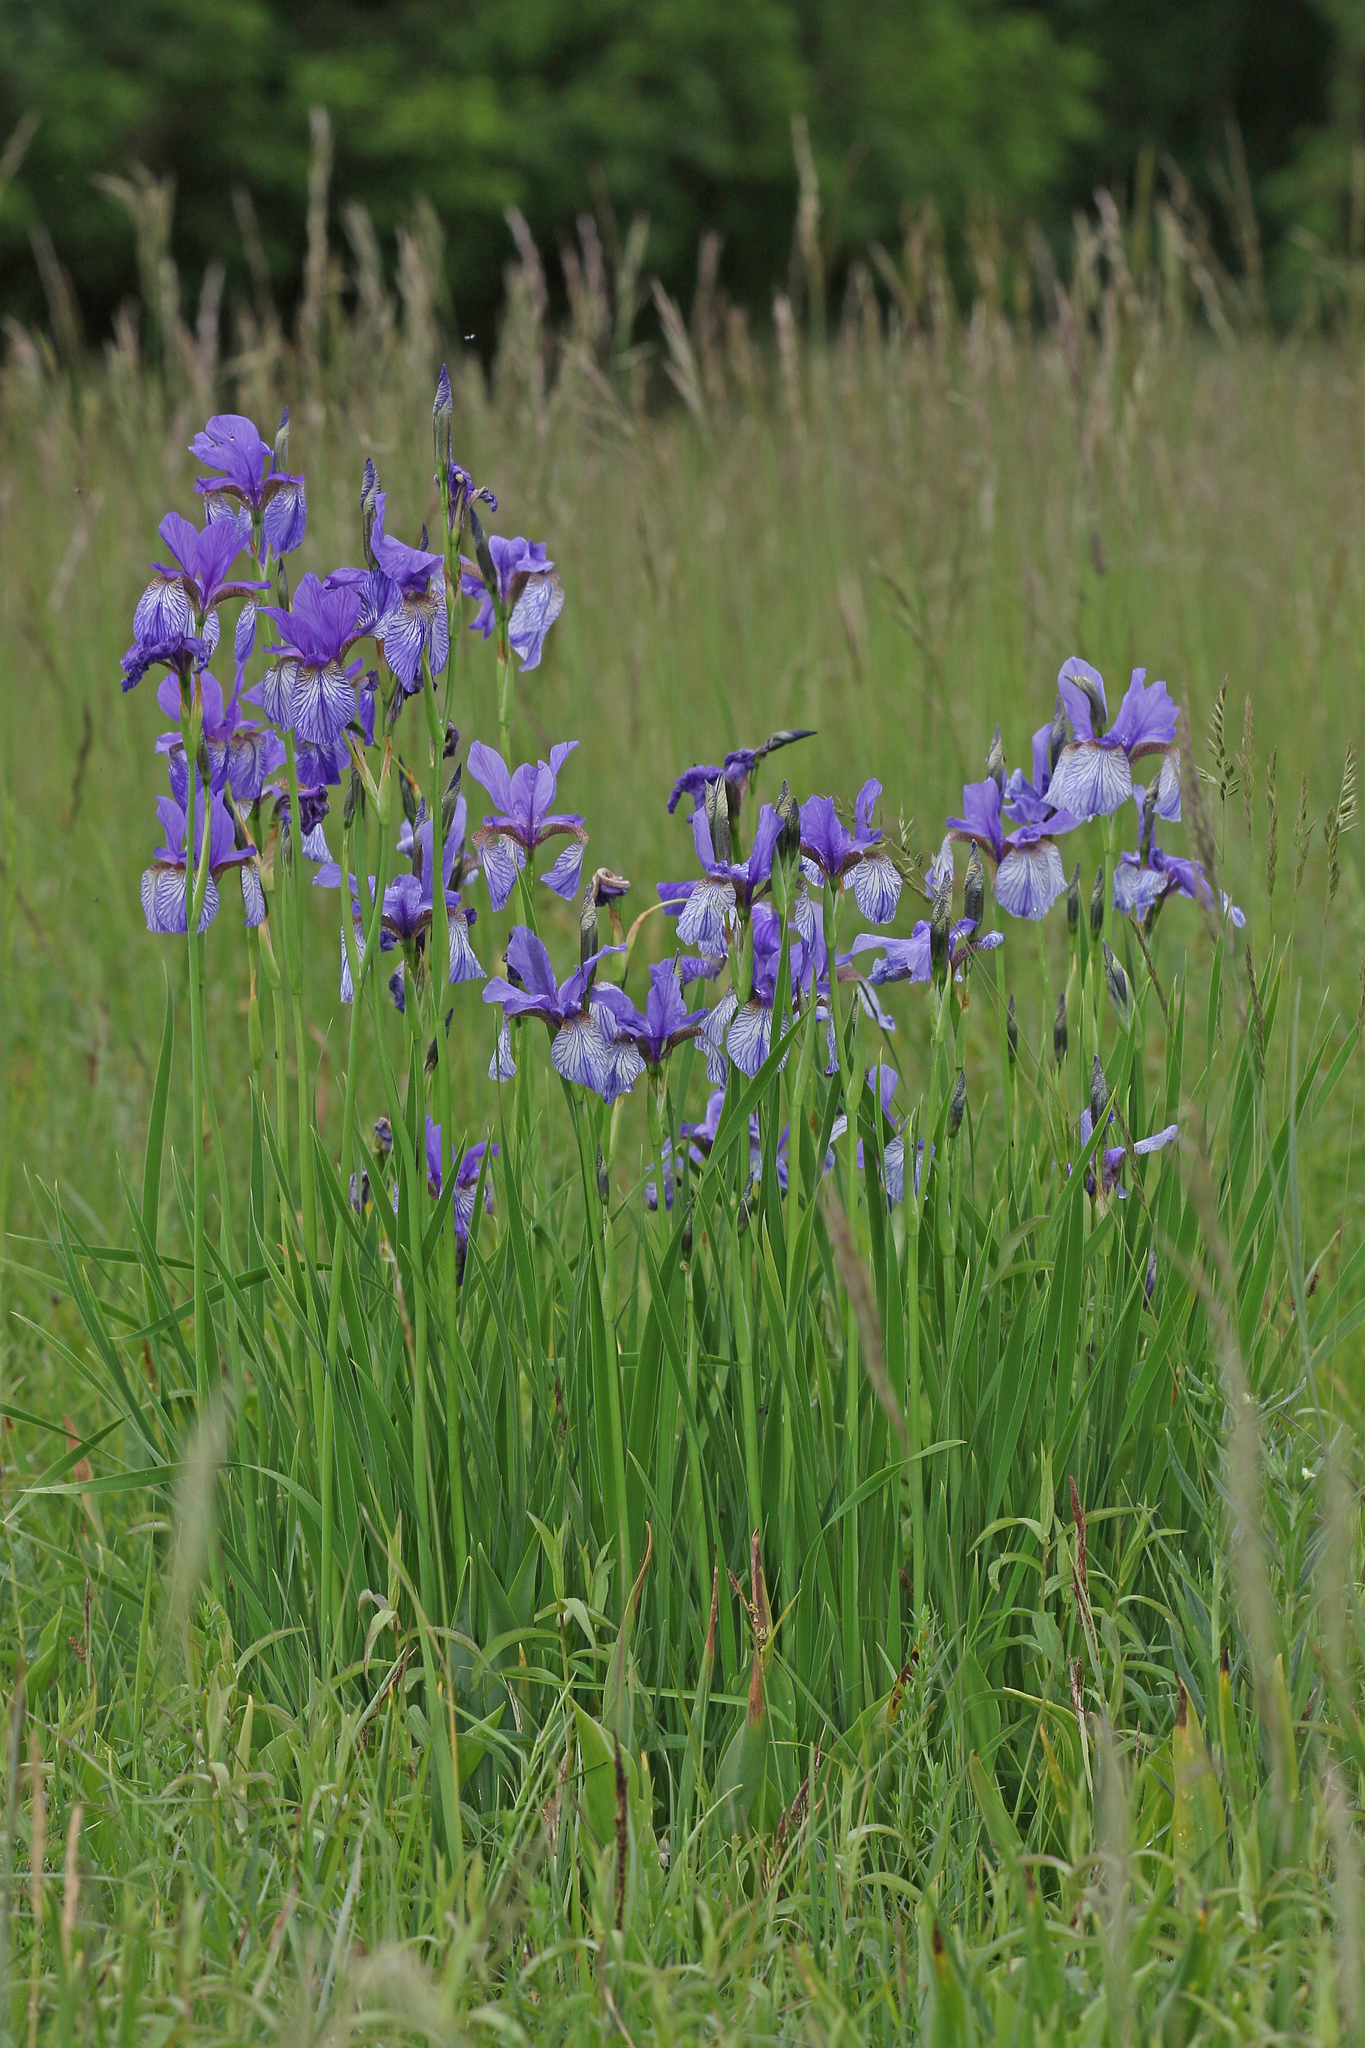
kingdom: Plantae
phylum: Tracheophyta
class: Liliopsida
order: Asparagales
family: Iridaceae
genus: Iris
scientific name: Iris sibirica
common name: Siberian iris
